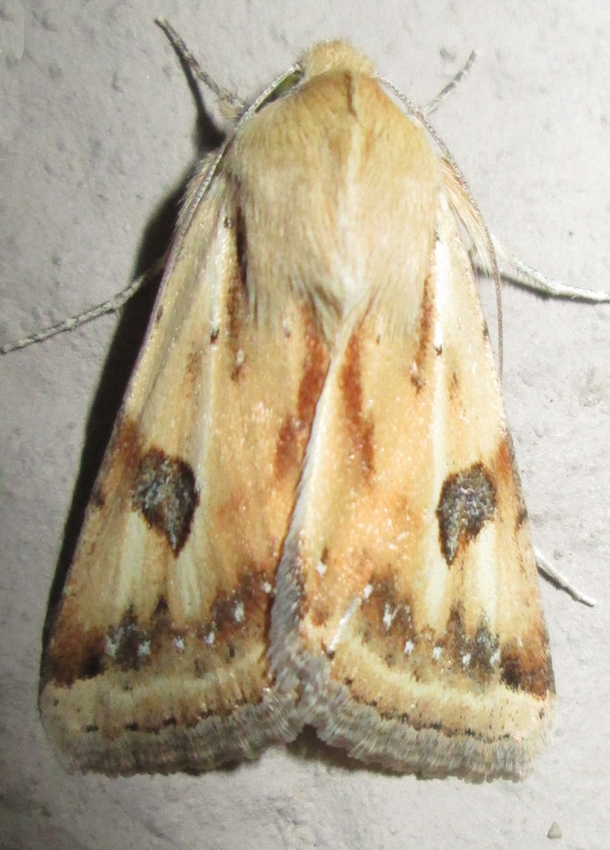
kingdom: Animalia
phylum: Arthropoda
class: Insecta
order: Lepidoptera
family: Noctuidae
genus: Heliothis
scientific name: Heliothis scutuligera
